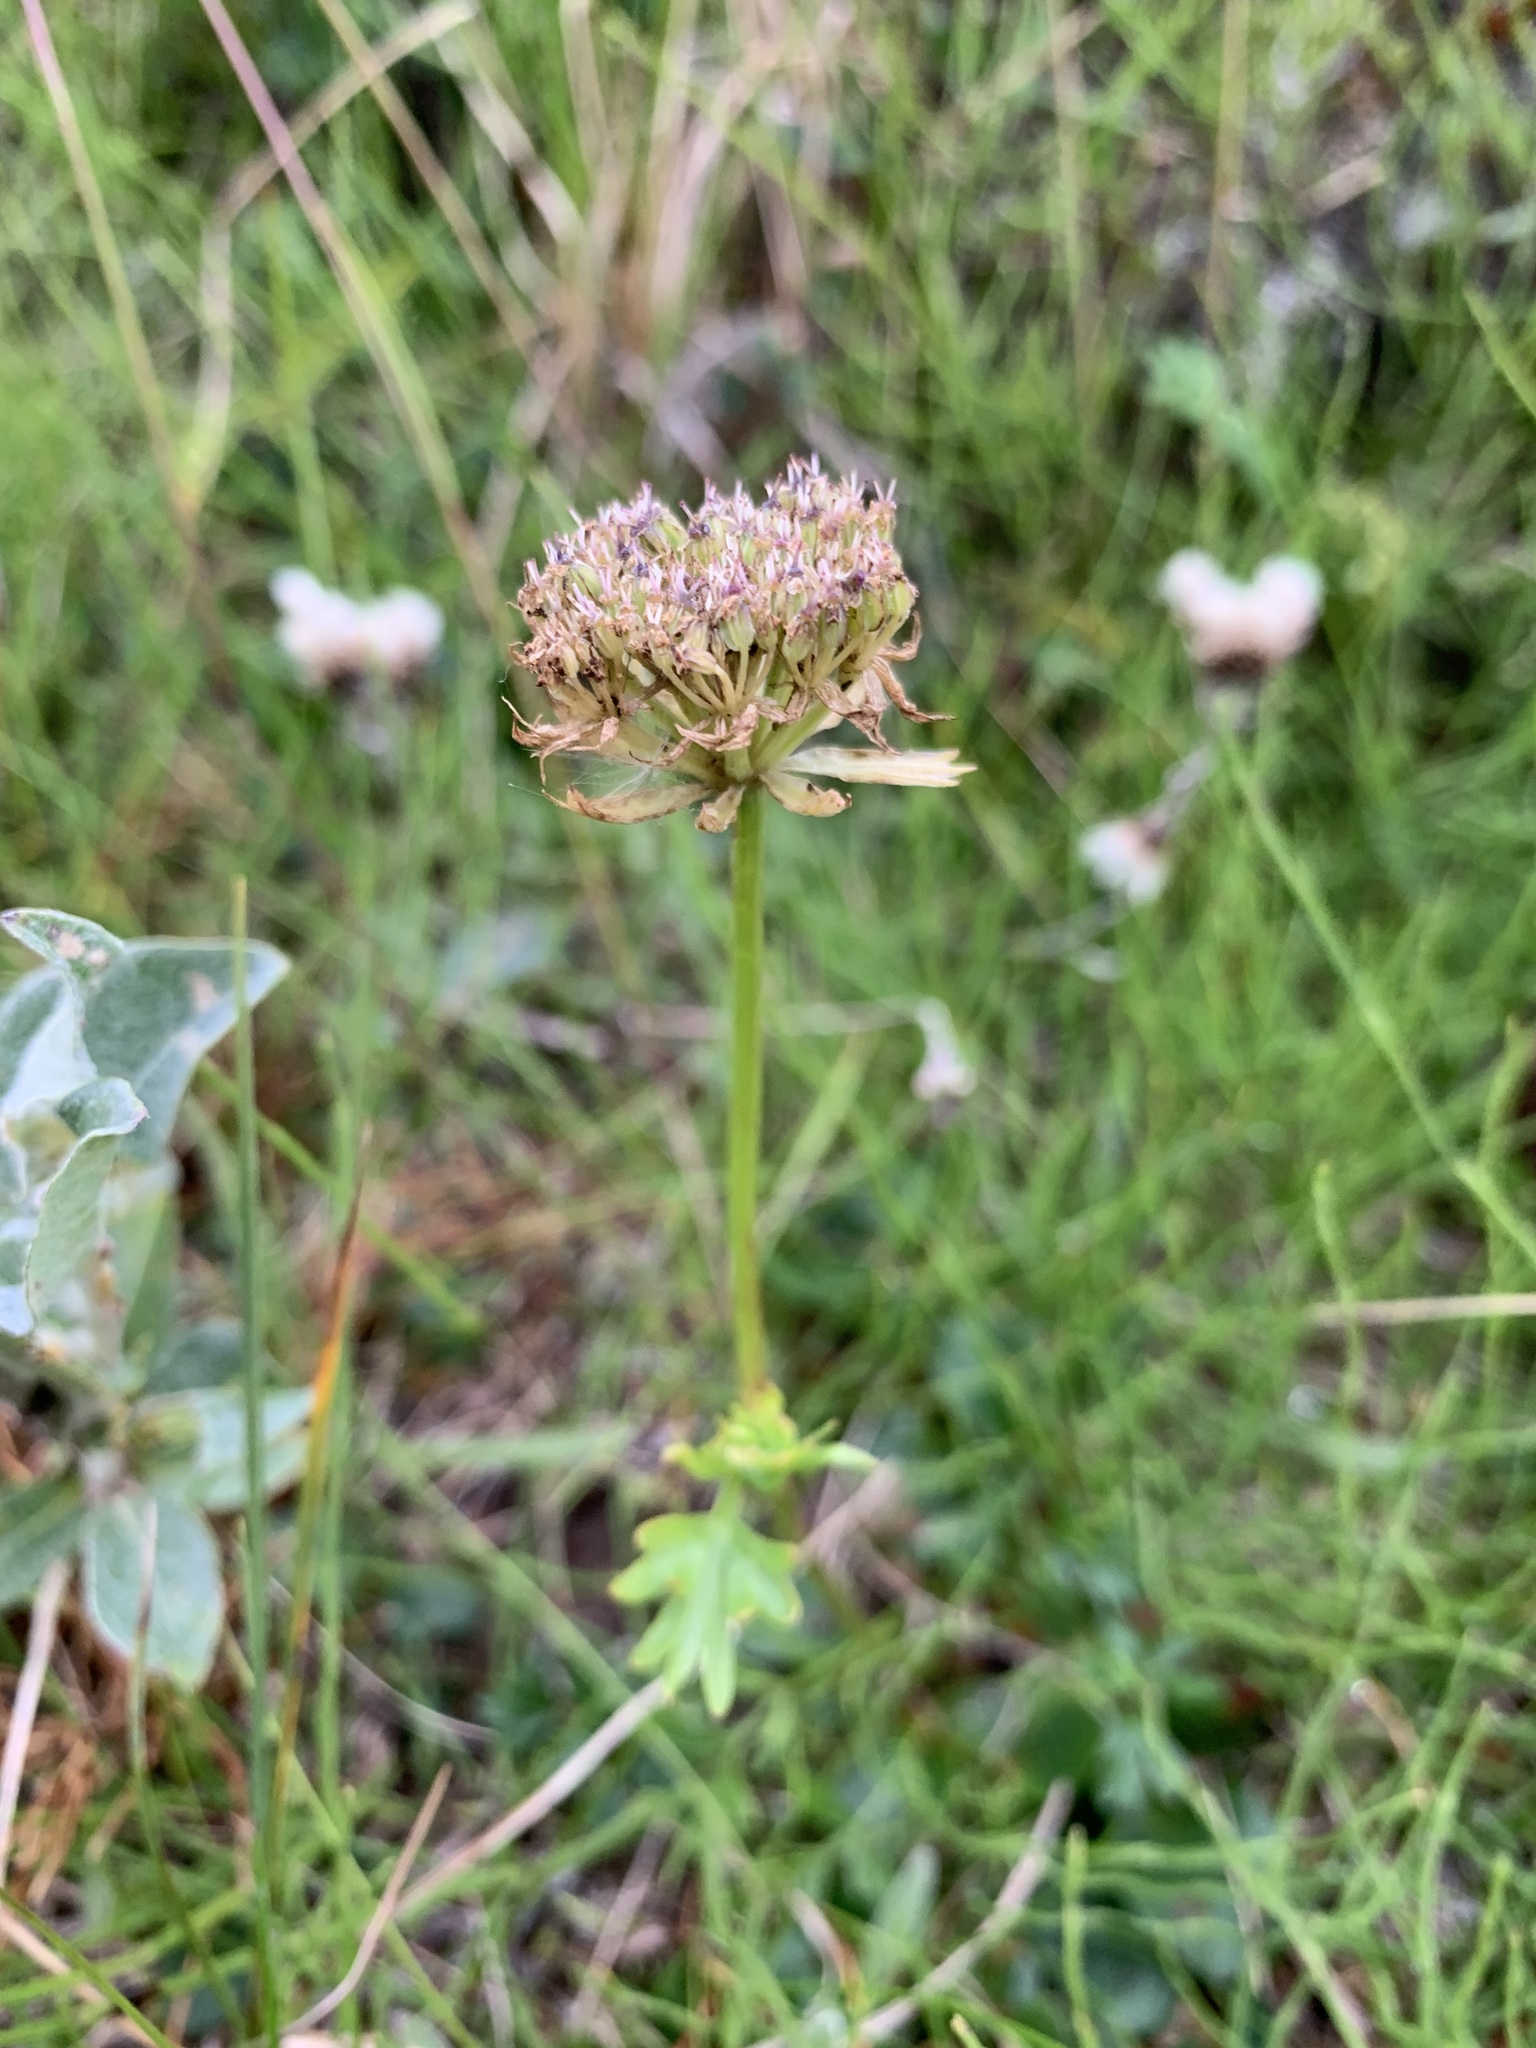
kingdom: Plantae
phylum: Tracheophyta
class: Magnoliopsida
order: Apiales
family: Apiaceae
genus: Pachypleurum
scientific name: Pachypleurum mutellinoides
